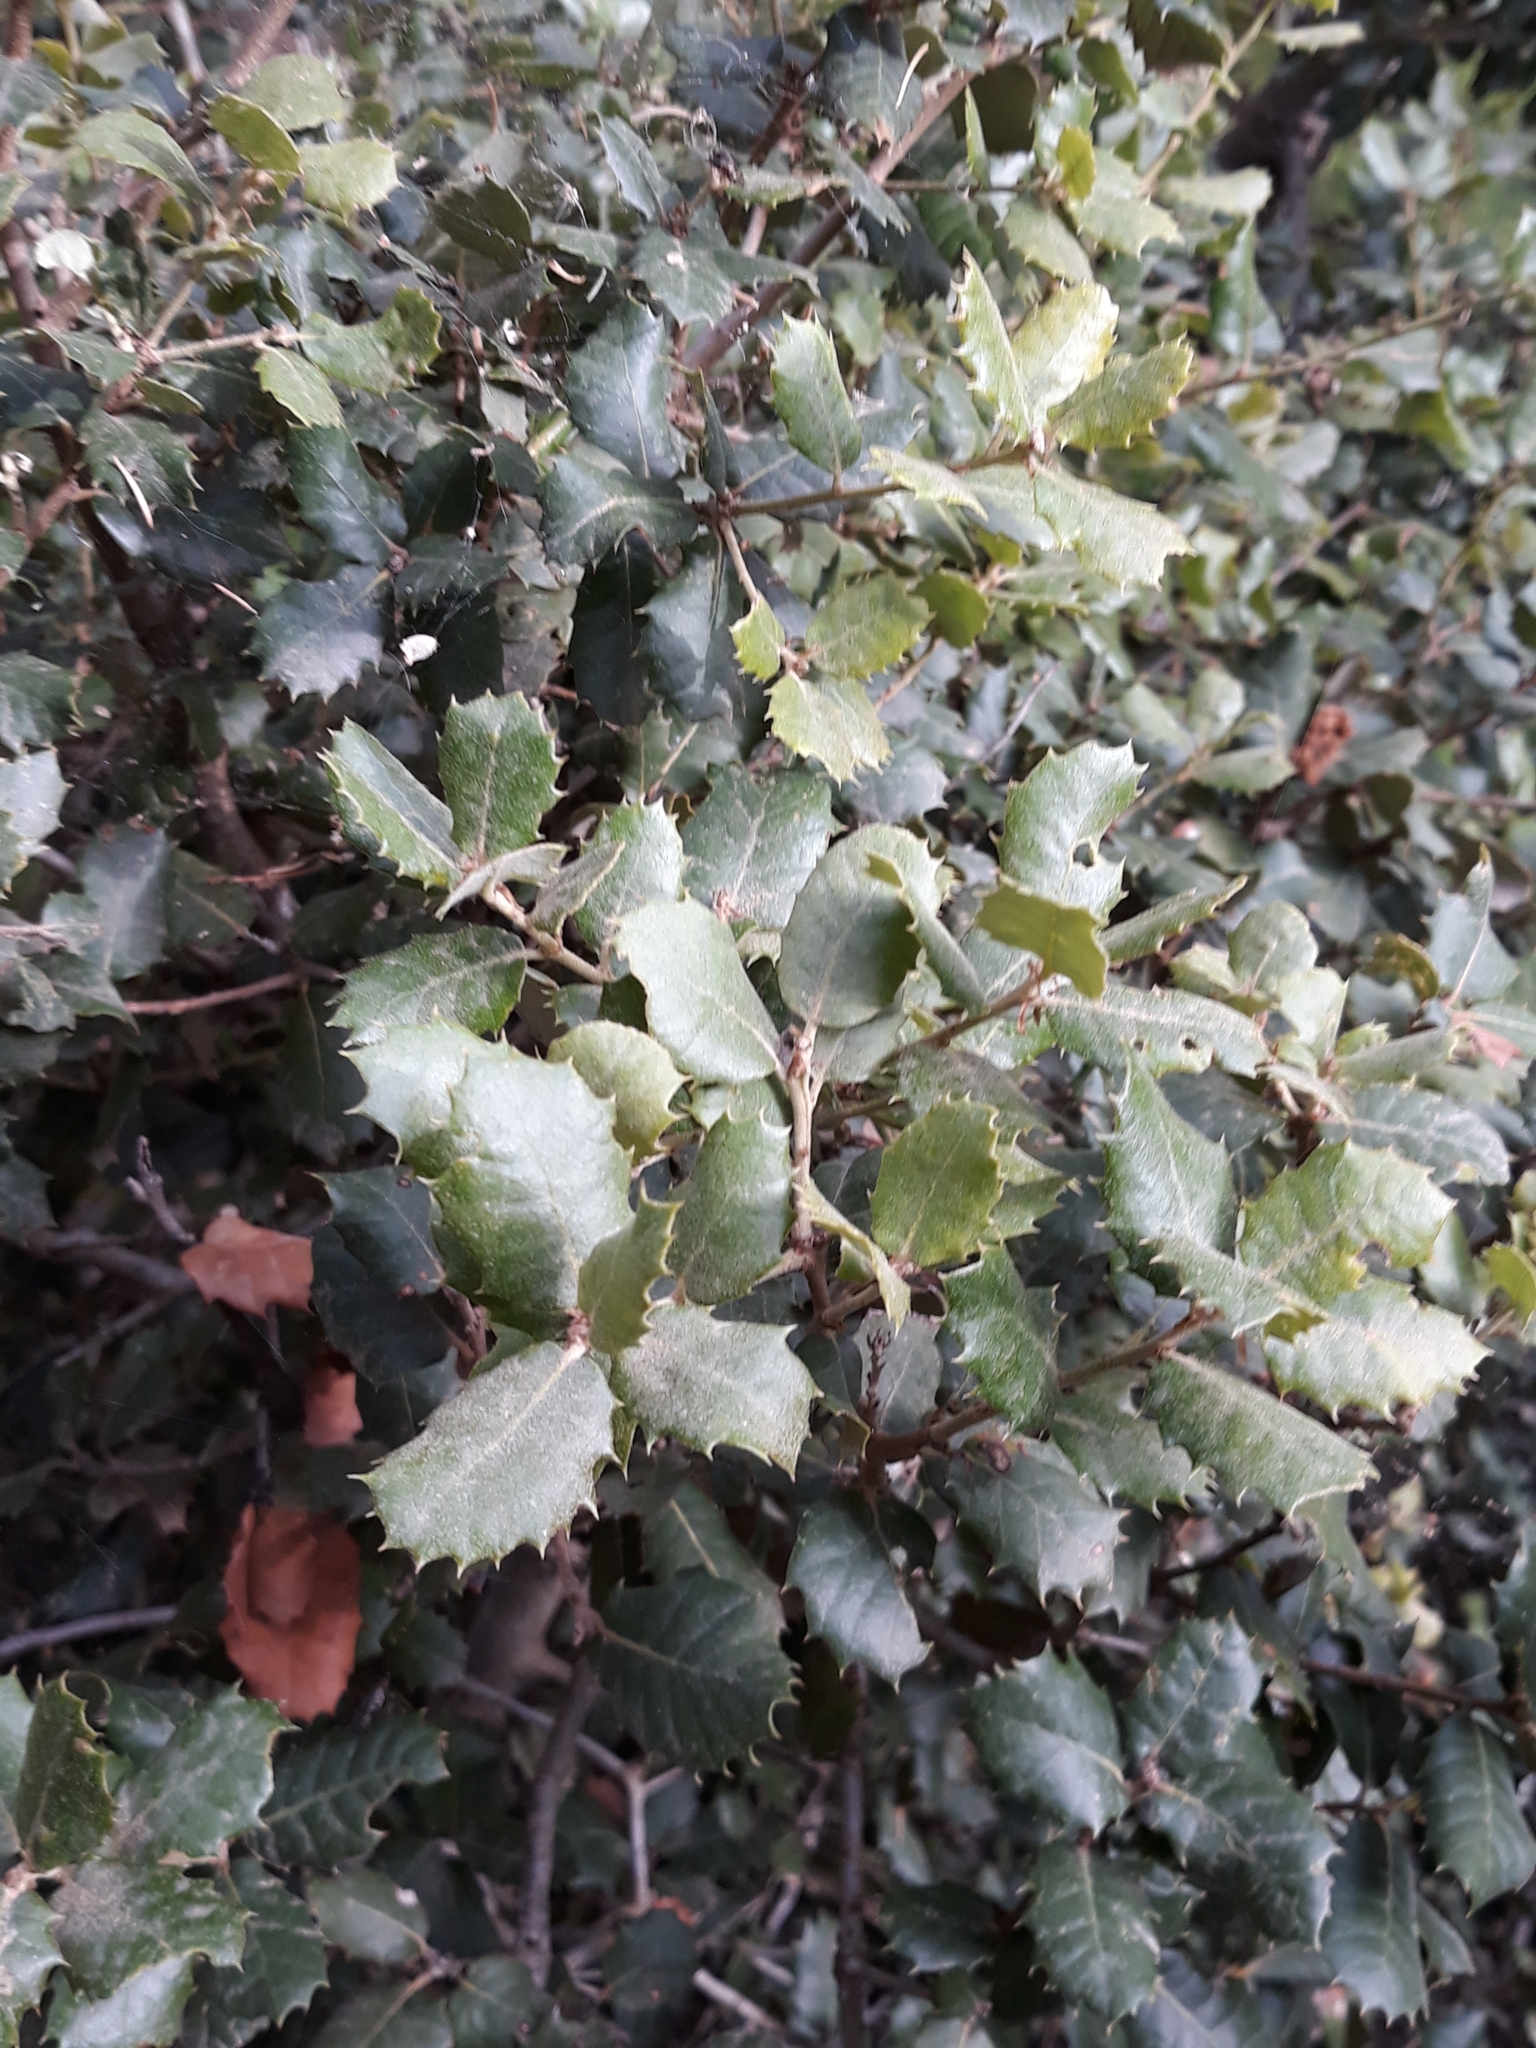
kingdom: Plantae
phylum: Tracheophyta
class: Magnoliopsida
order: Fagales
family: Fagaceae
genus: Quercus
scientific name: Quercus rotundifolia
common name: Holm oak
